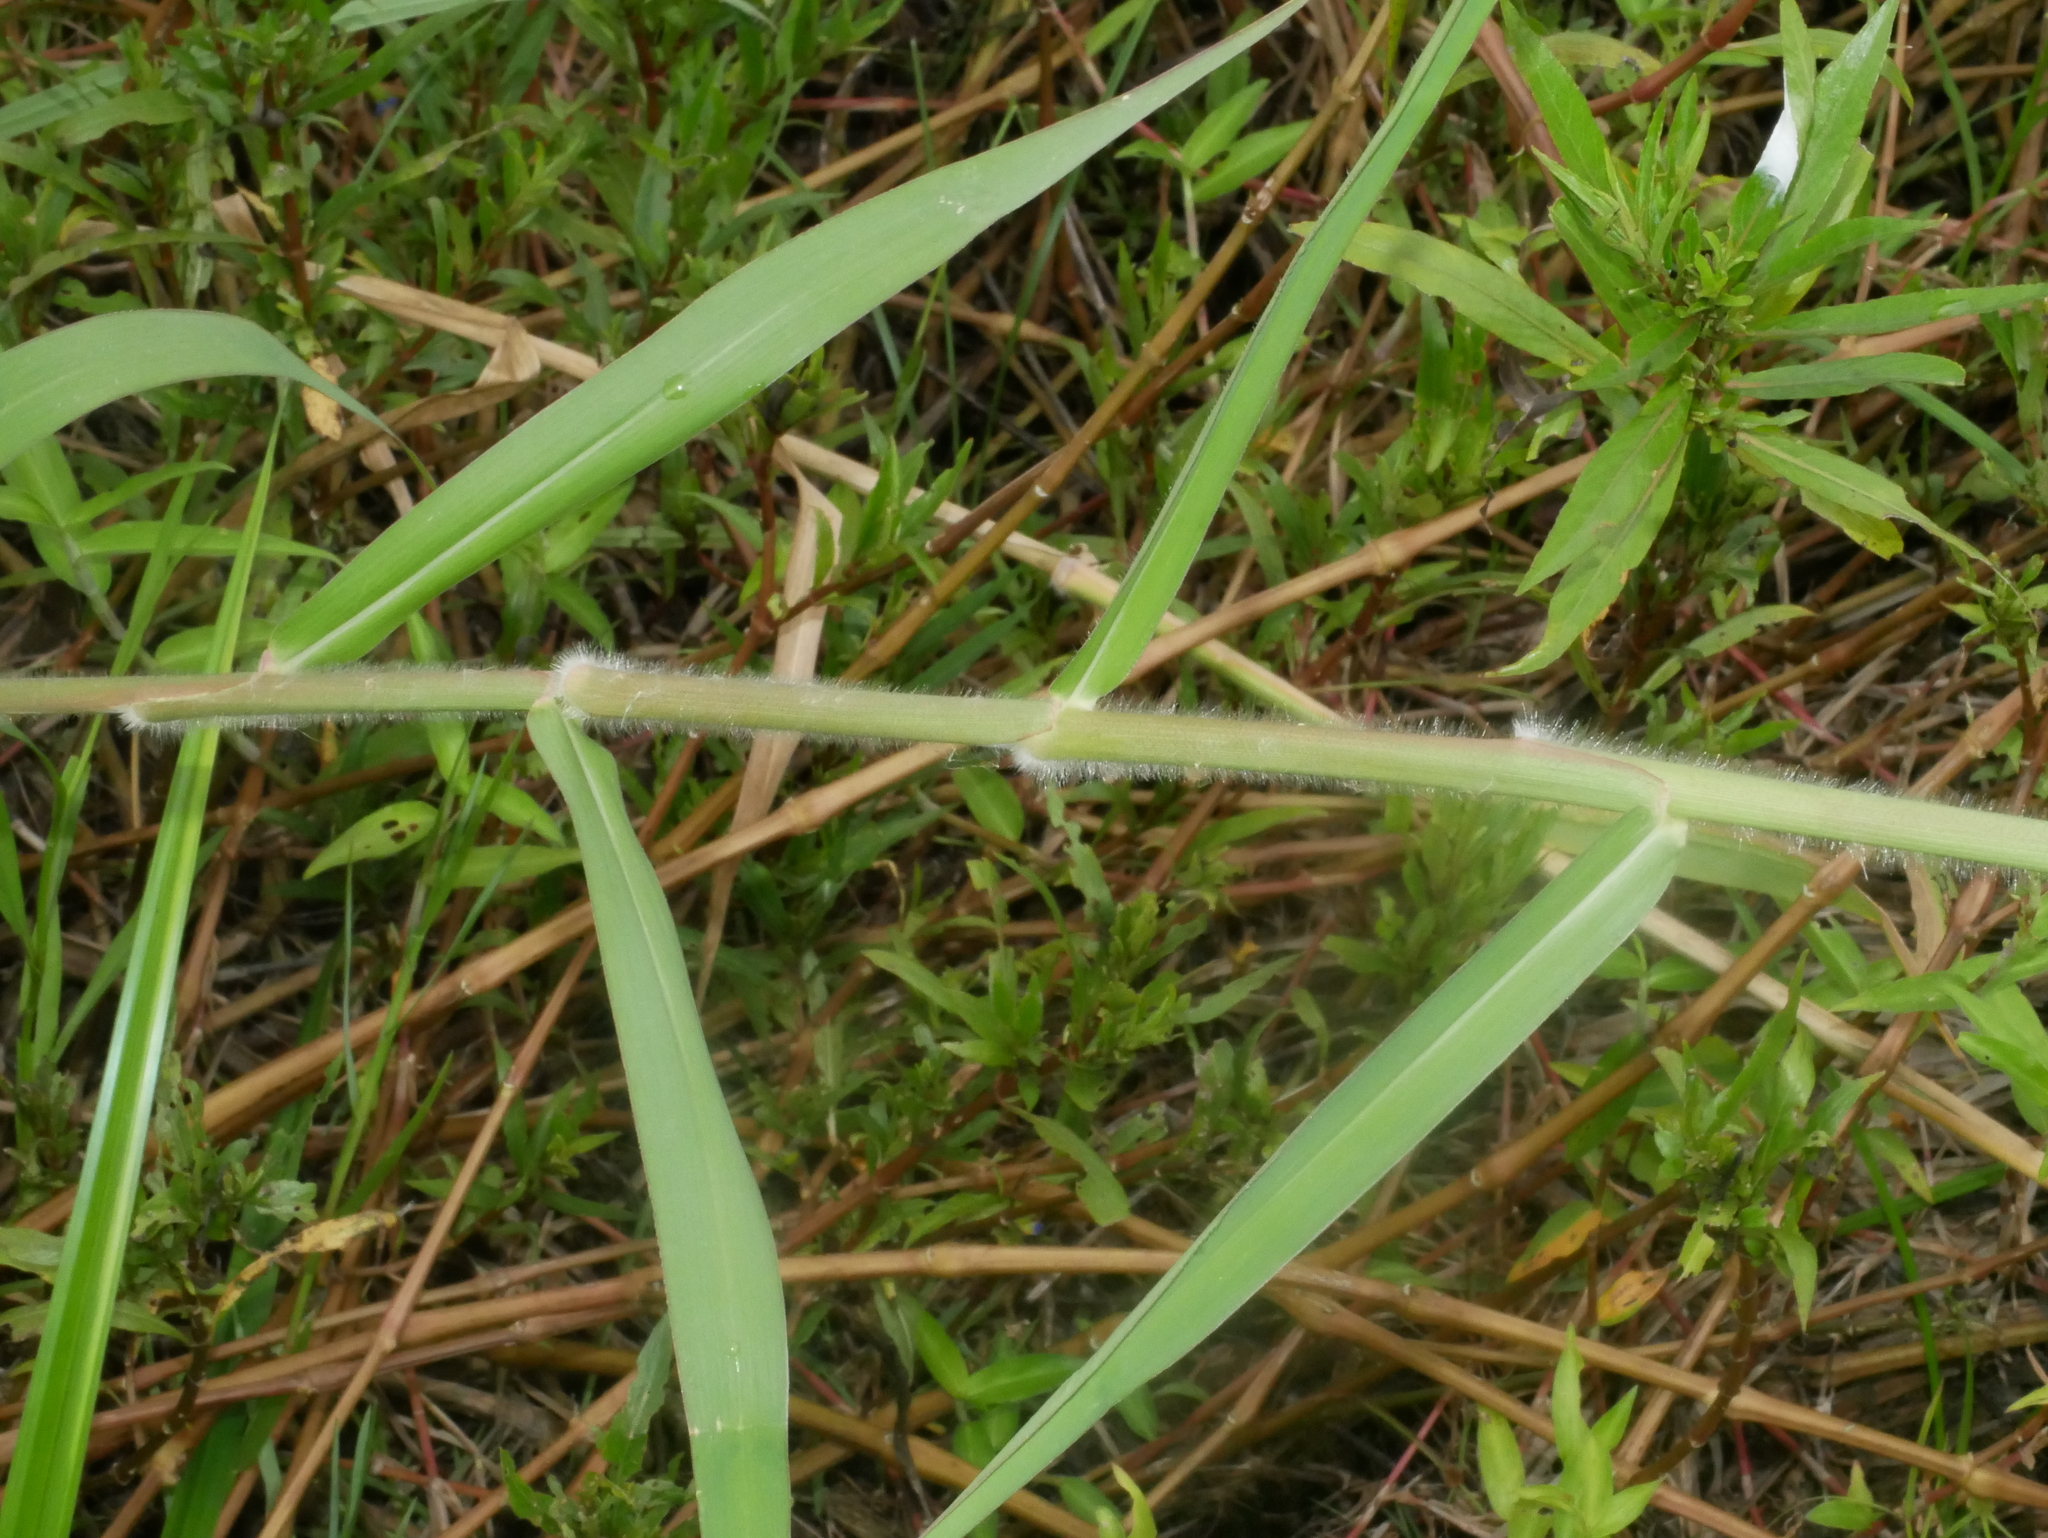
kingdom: Plantae
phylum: Tracheophyta
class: Liliopsida
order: Poales
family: Poaceae
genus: Urochloa
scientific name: Urochloa mutica
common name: Para grass
